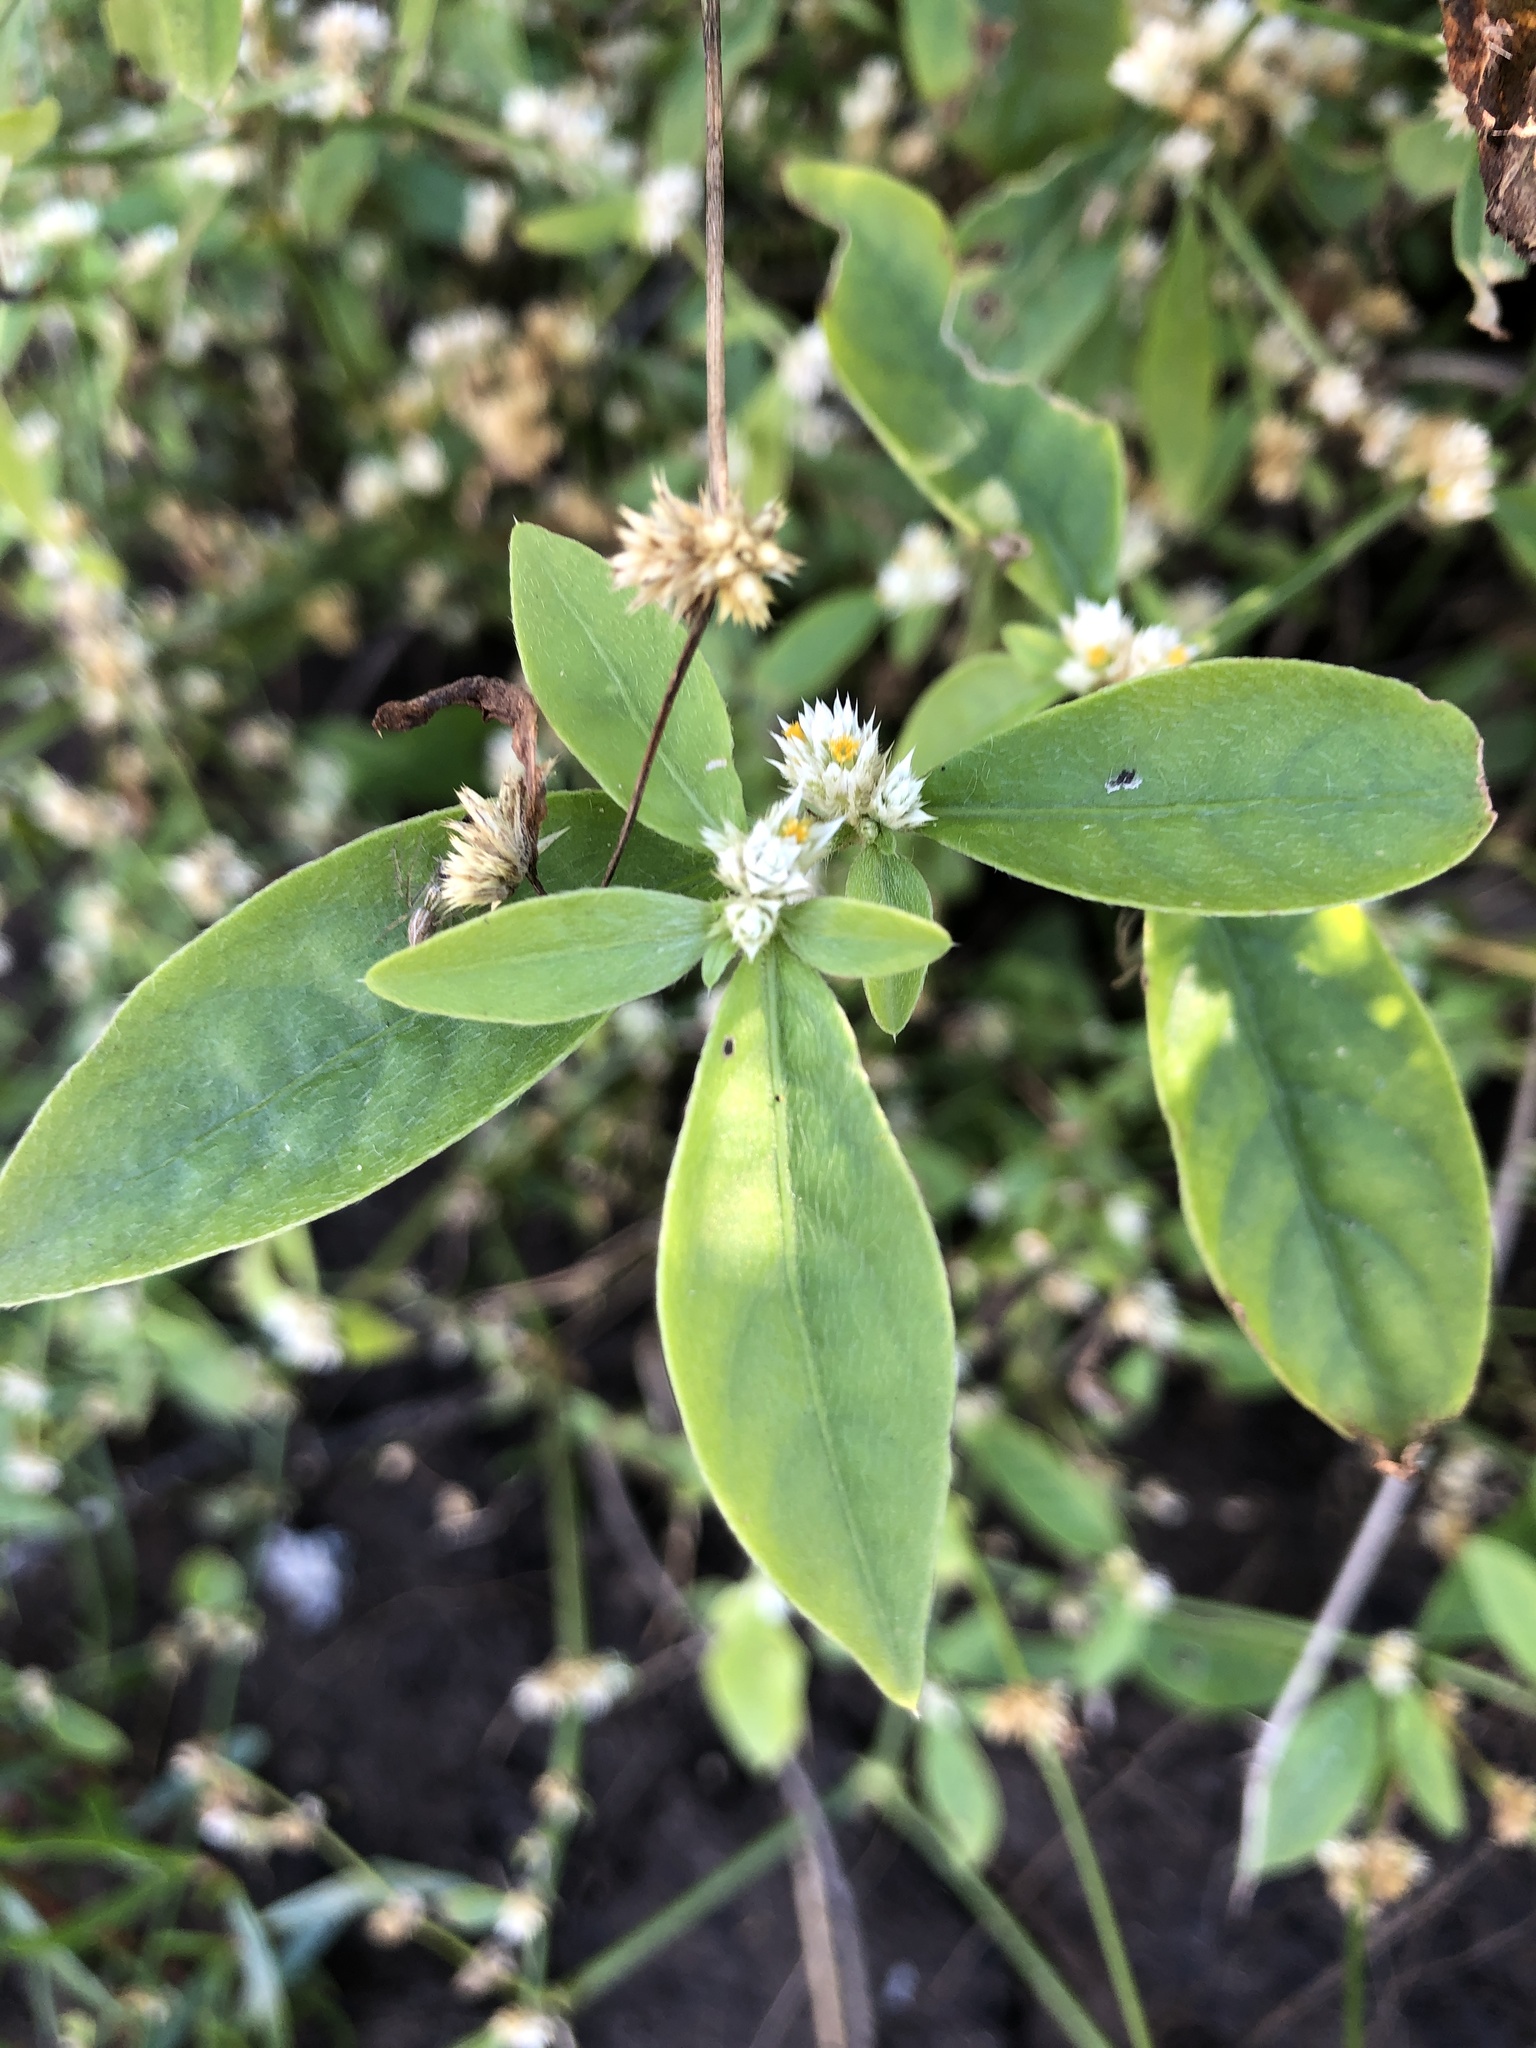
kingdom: Plantae
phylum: Tracheophyta
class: Magnoliopsida
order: Caryophyllales
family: Amaranthaceae
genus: Alternanthera
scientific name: Alternanthera ficoidea
